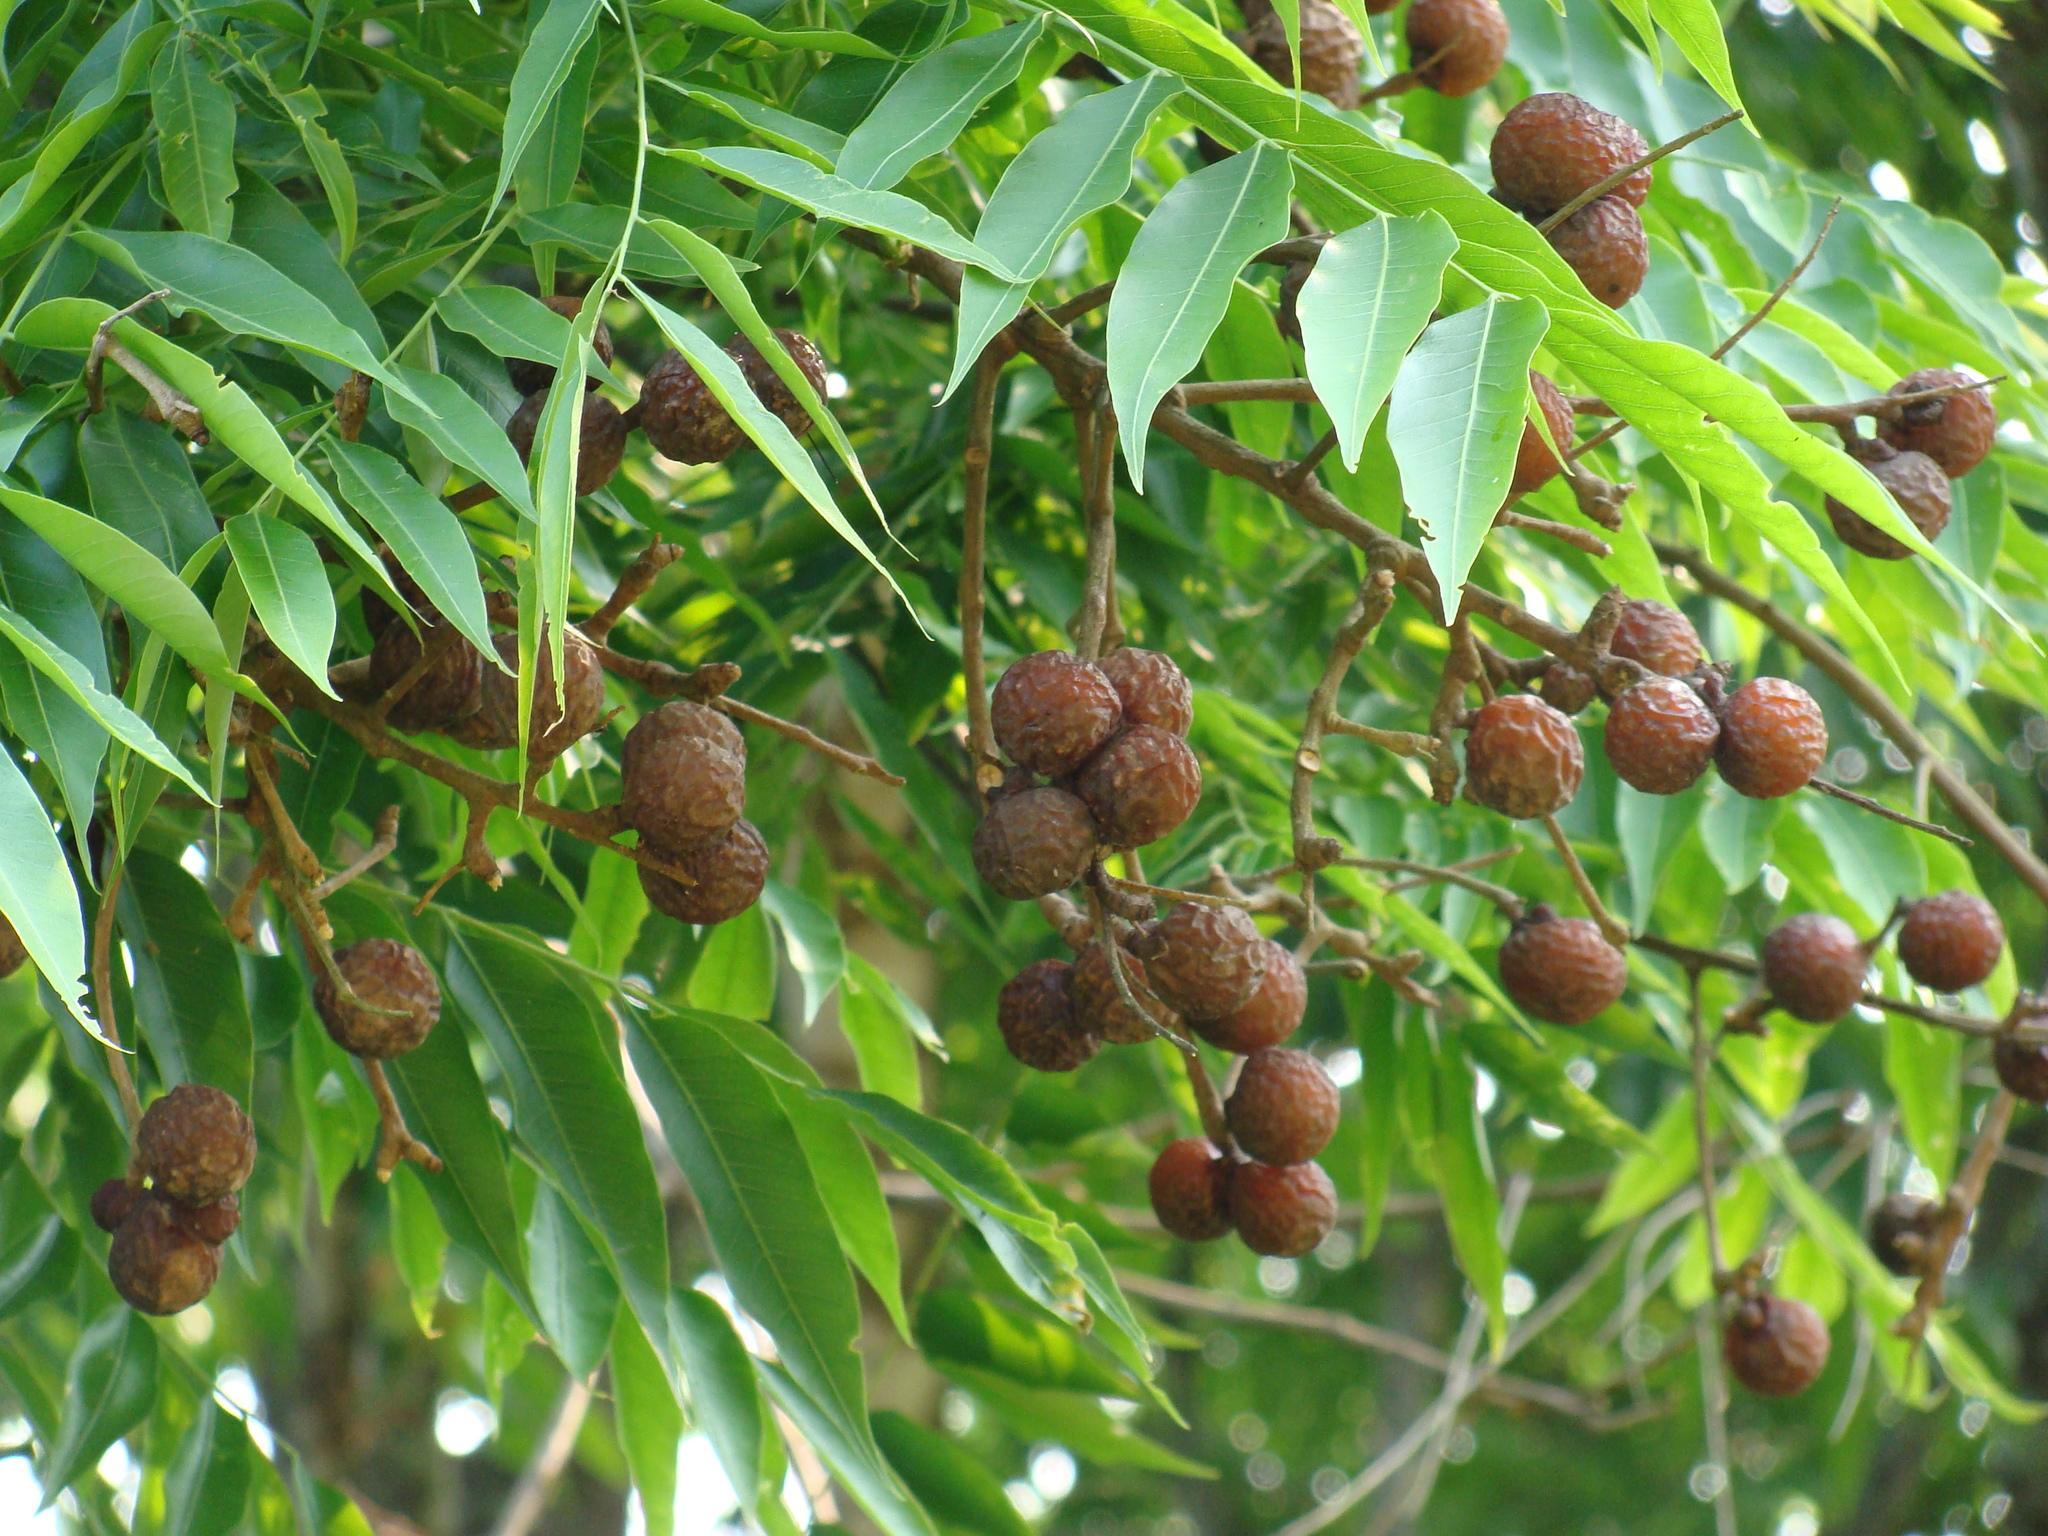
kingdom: Plantae
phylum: Tracheophyta
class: Magnoliopsida
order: Sapindales
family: Sapindaceae
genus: Sapindus
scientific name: Sapindus saponaria
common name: Wingleaf soapberry
